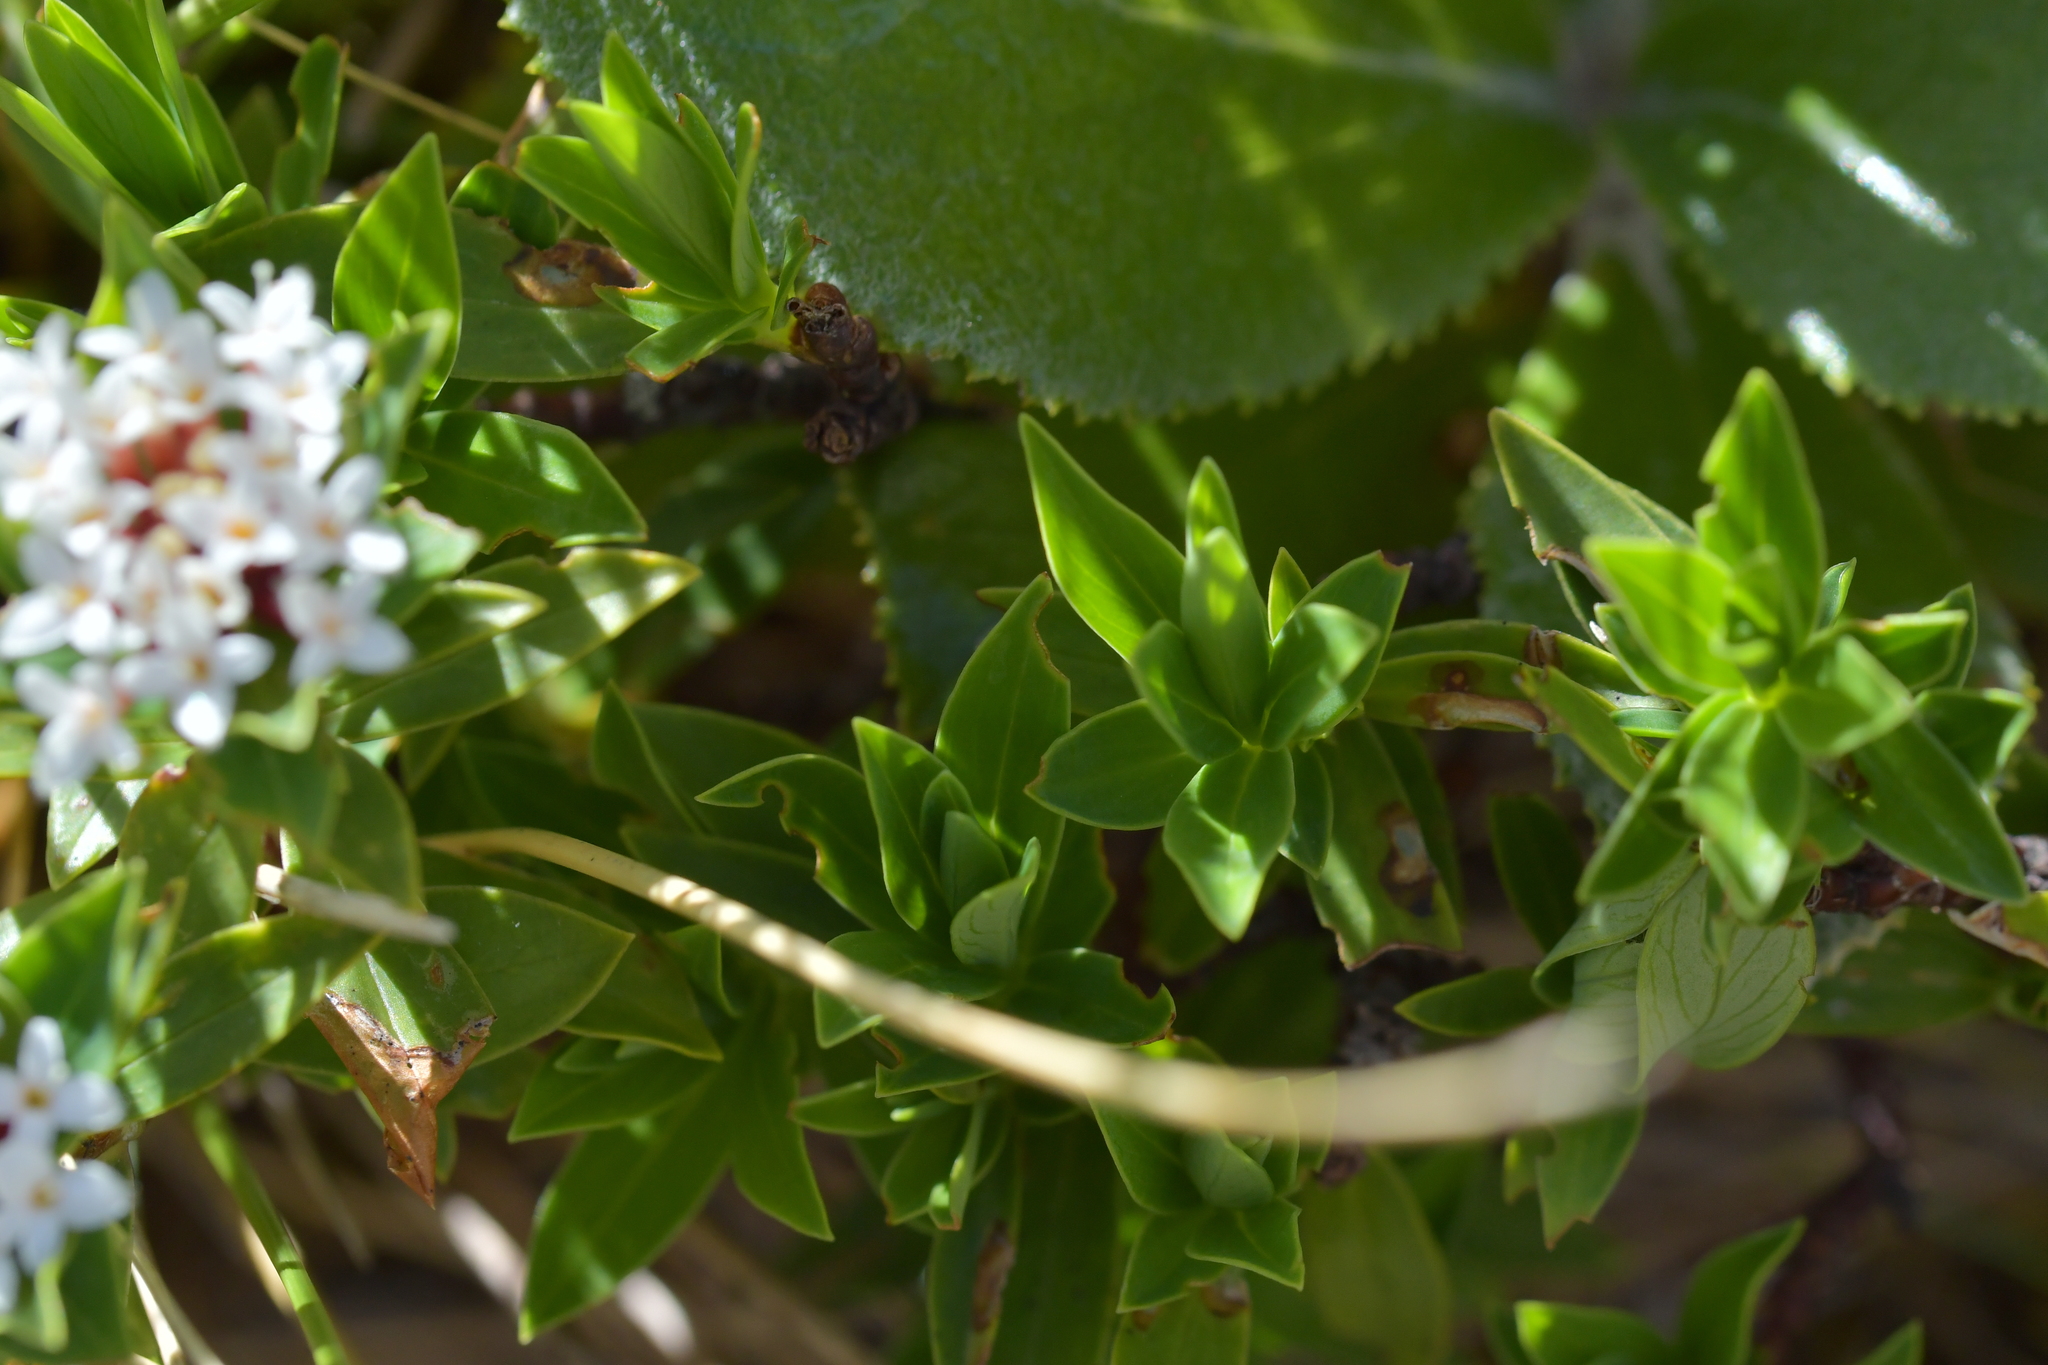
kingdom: Plantae
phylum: Tracheophyta
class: Magnoliopsida
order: Malvales
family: Thymelaeaceae
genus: Pimelea
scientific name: Pimelea gnidia
